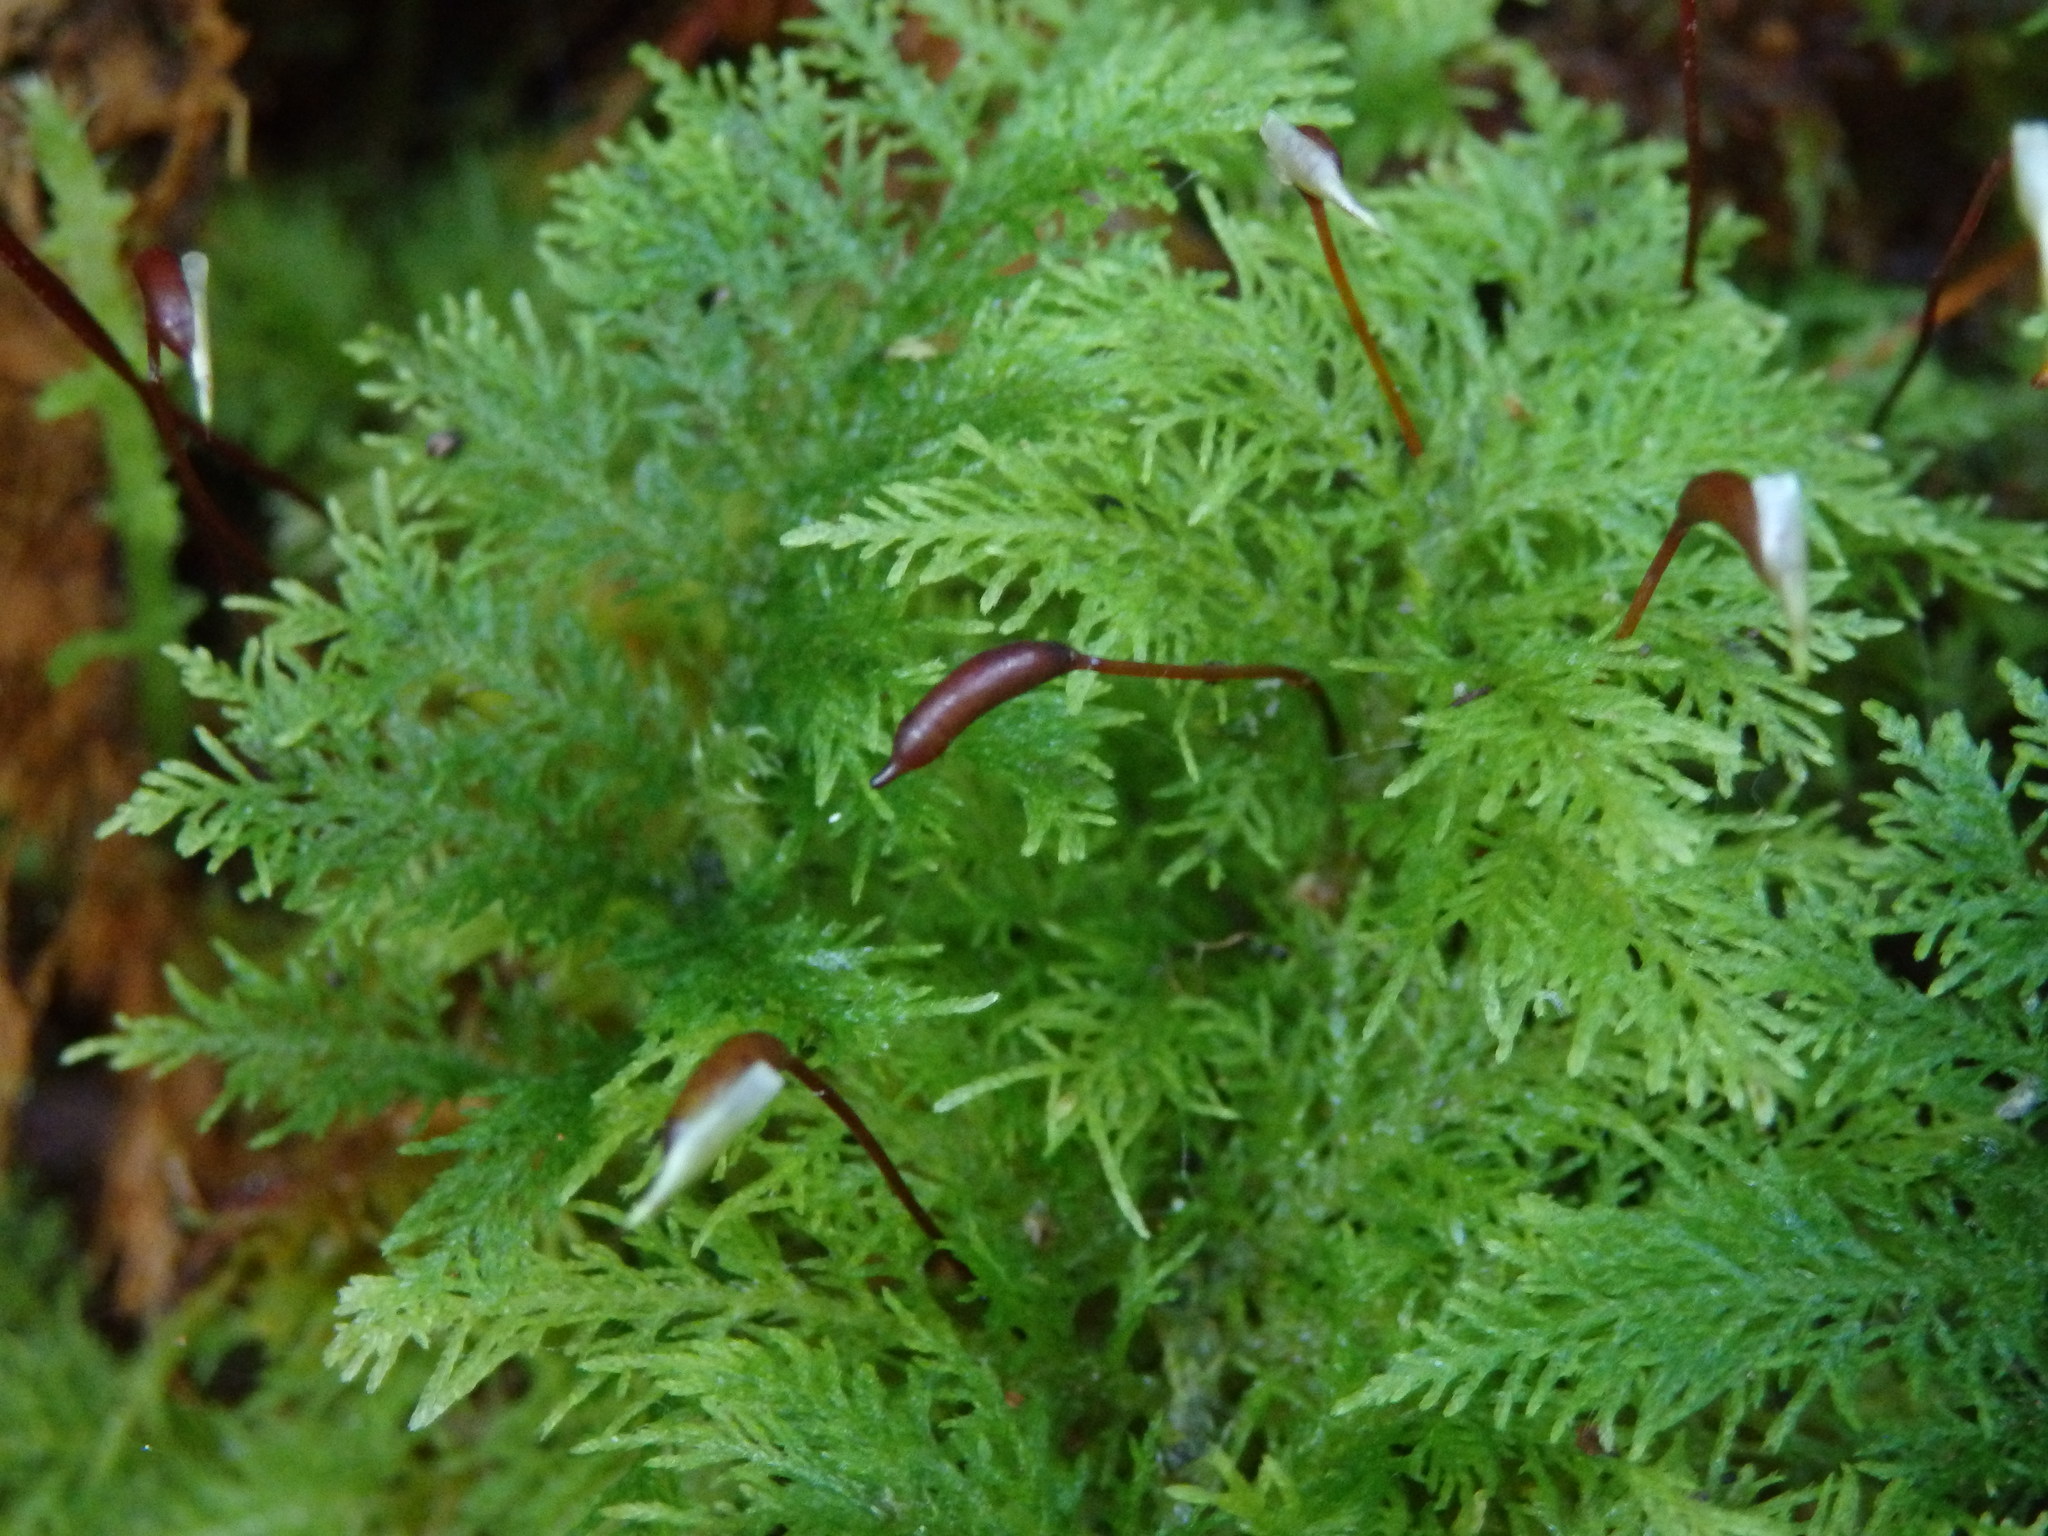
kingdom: Plantae
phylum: Bryophyta
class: Bryopsida
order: Hypnales
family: Thuidiaceae
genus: Thuidium
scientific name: Thuidium tamariscinum
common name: Common tamarisk-moss
